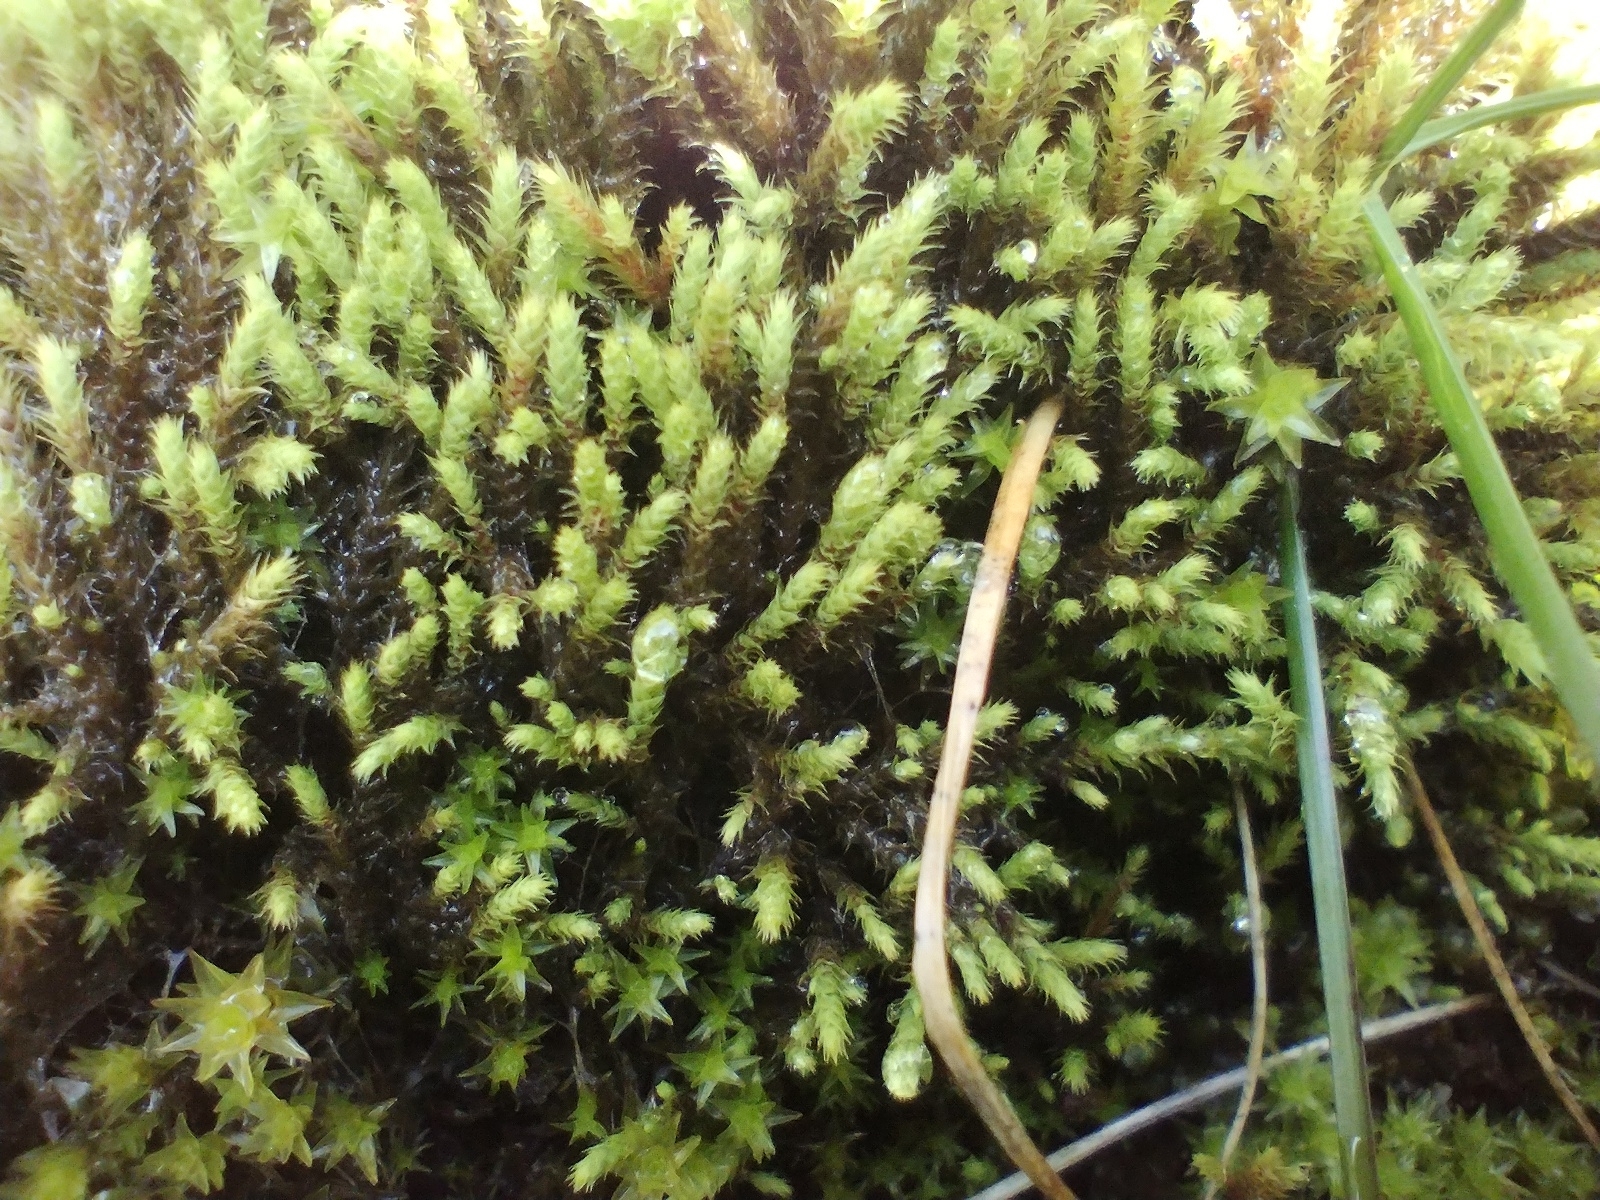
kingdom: Plantae
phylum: Bryophyta
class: Bryopsida
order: Bartramiales
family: Bartramiaceae
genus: Philonotis
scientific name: Philonotis fontana
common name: Fountain apple-moss
